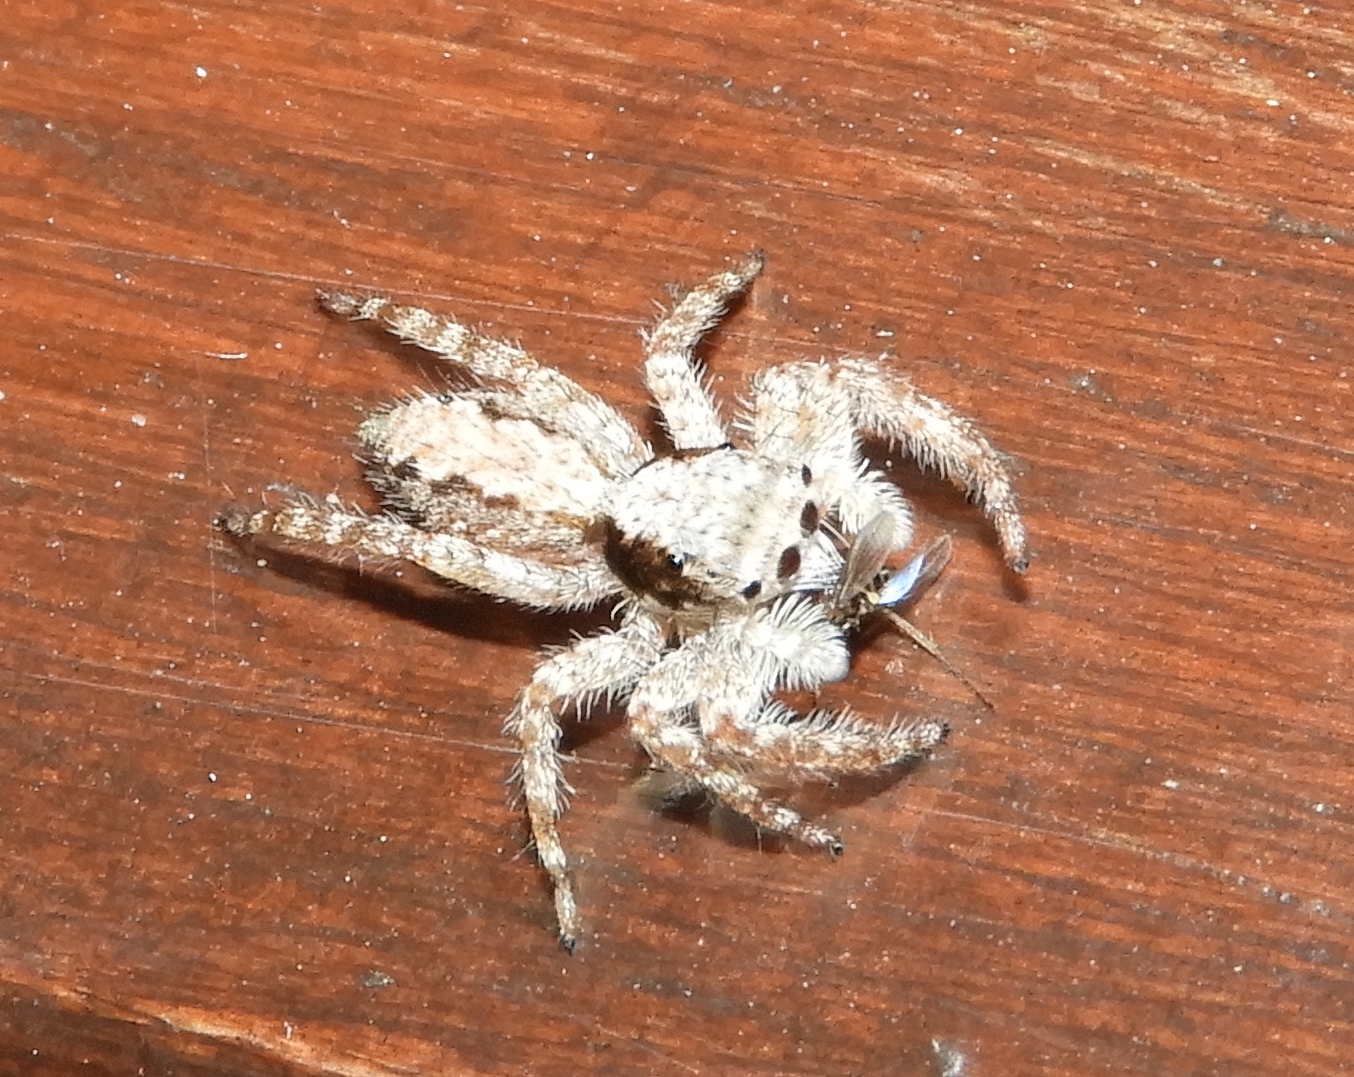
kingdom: Animalia
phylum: Arthropoda
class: Arachnida
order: Araneae
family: Salticidae
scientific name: Salticidae
